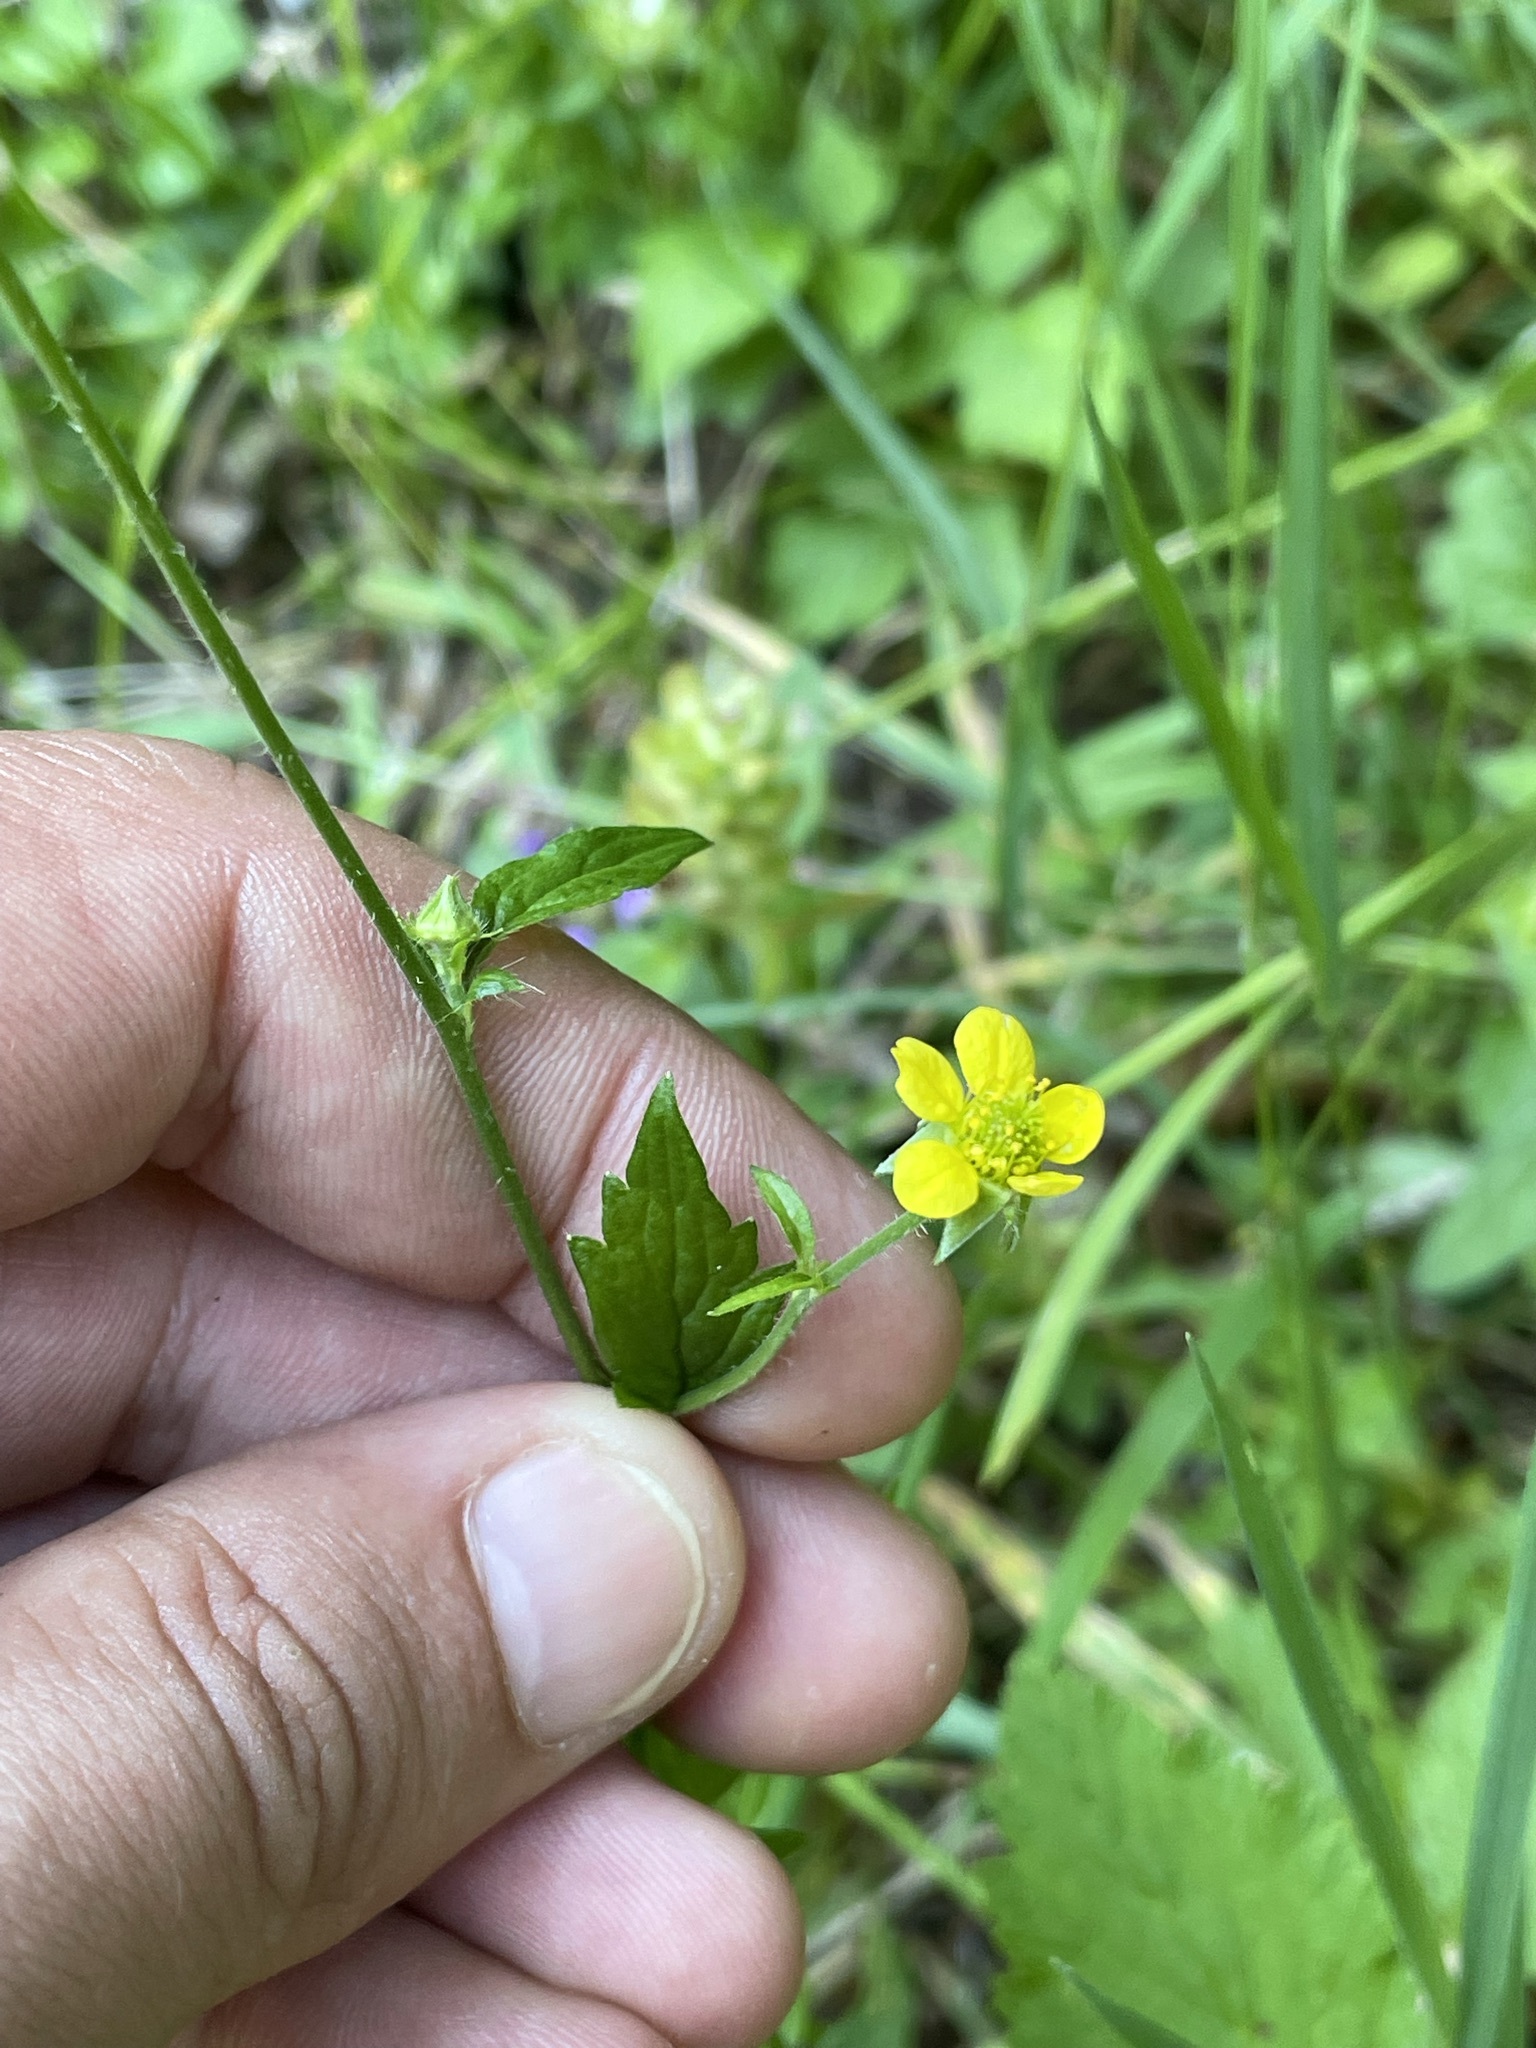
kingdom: Plantae
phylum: Tracheophyta
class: Magnoliopsida
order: Rosales
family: Rosaceae
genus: Geum
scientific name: Geum urbanum
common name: Wood avens
